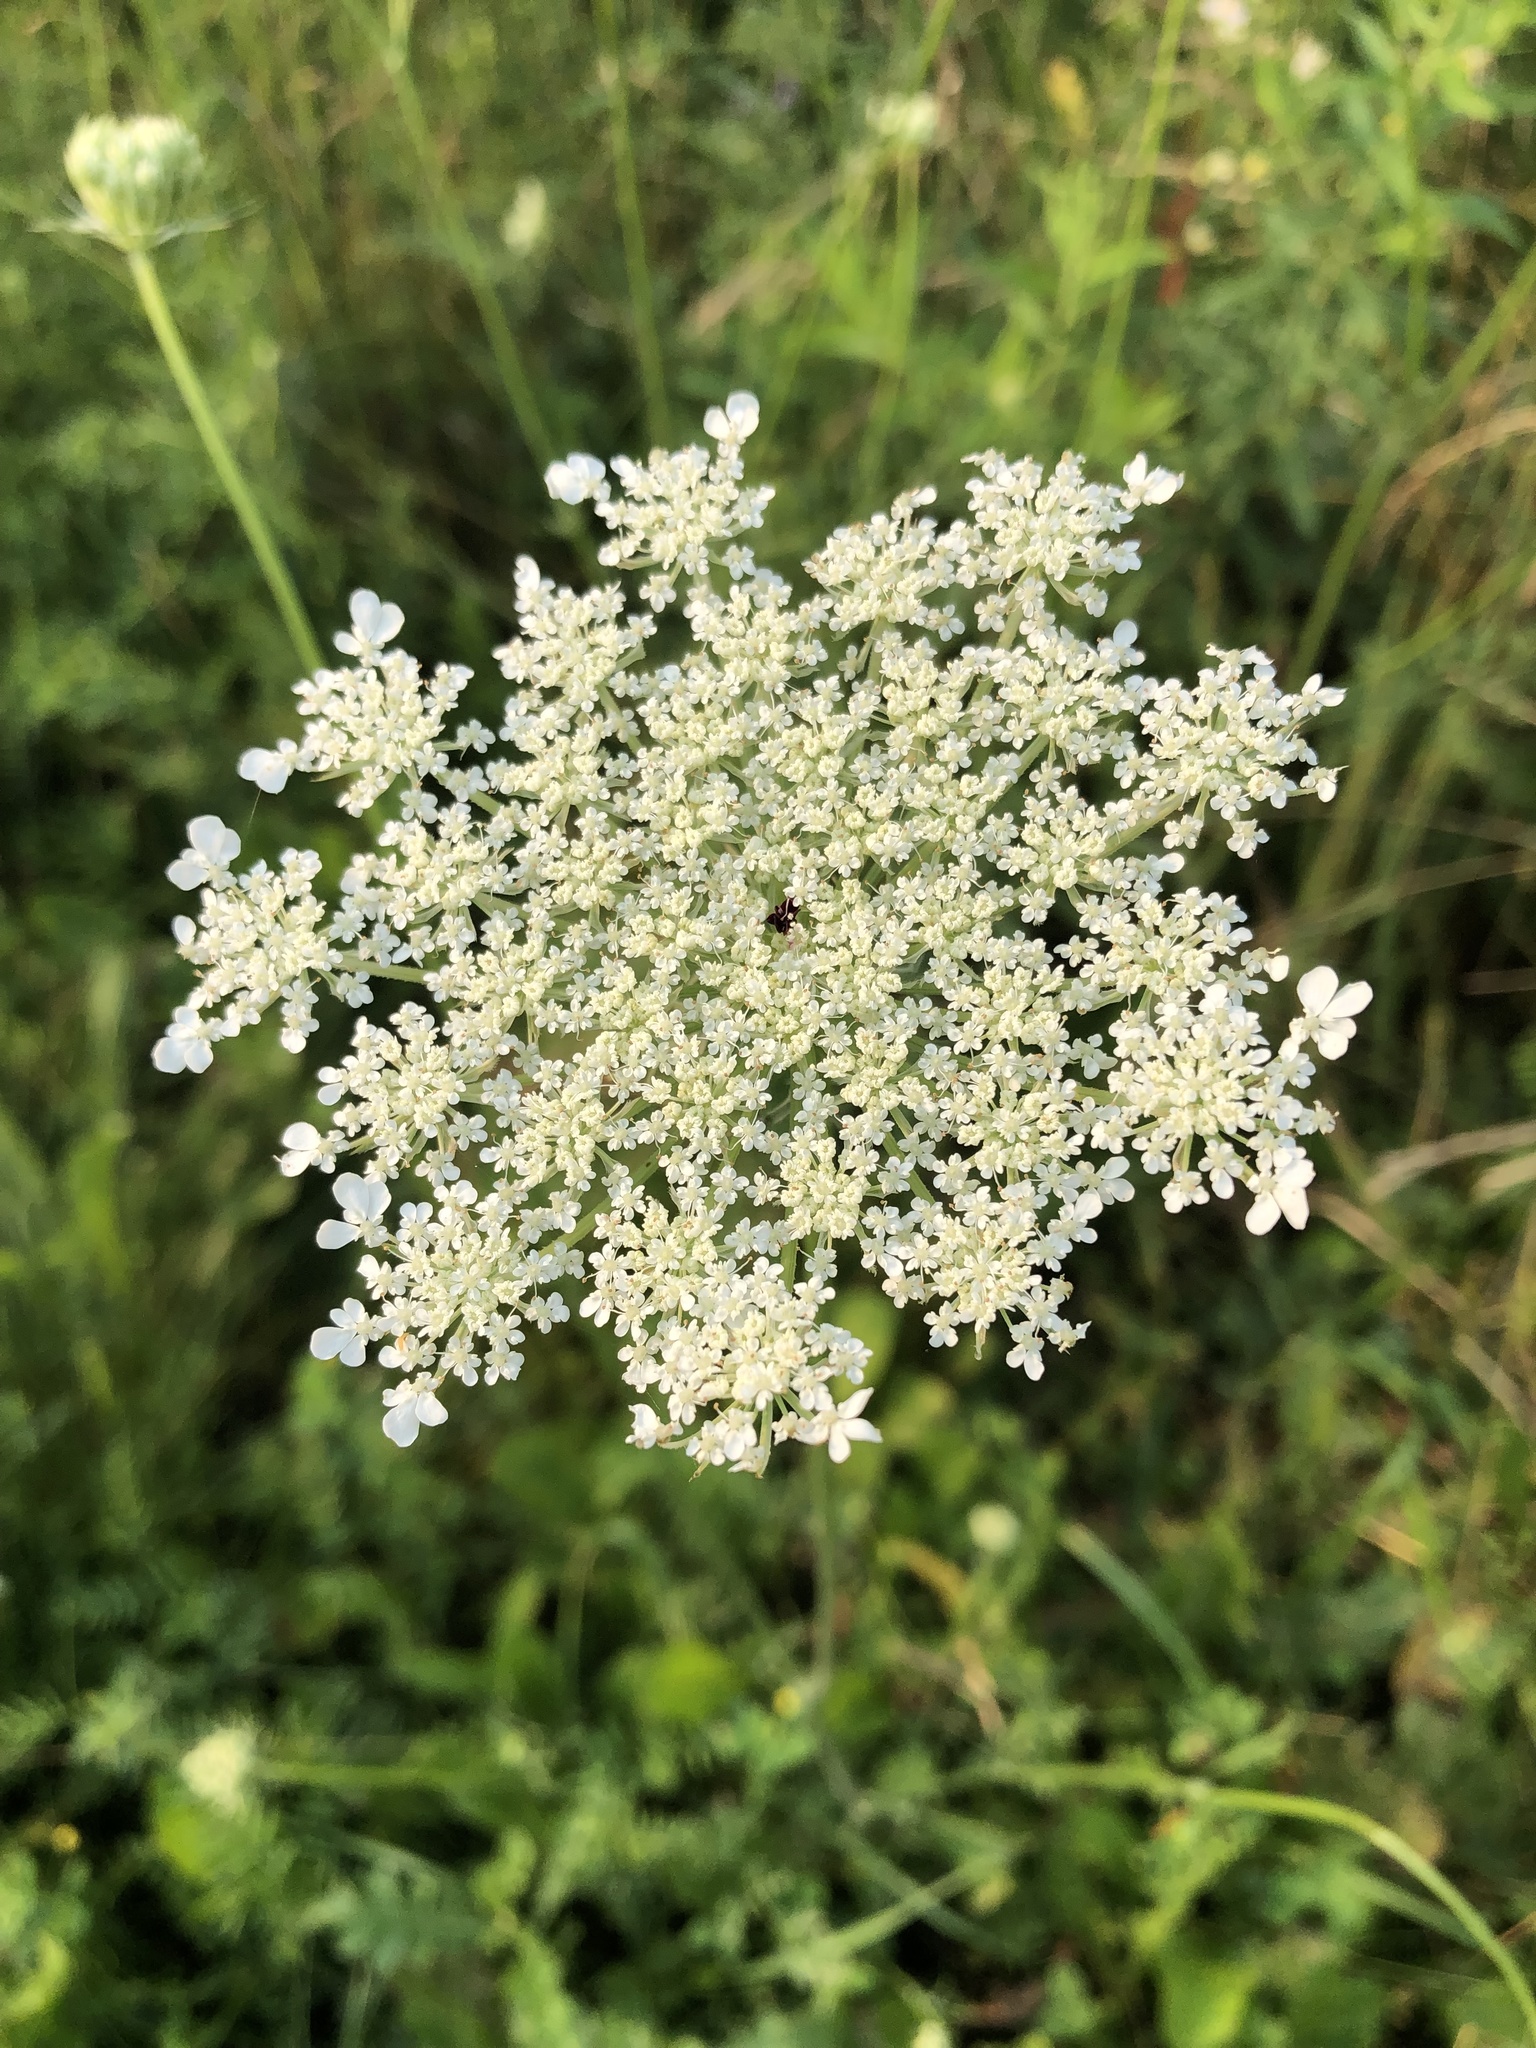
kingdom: Plantae
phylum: Tracheophyta
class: Magnoliopsida
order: Apiales
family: Apiaceae
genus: Daucus
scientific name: Daucus carota
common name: Wild carrot
